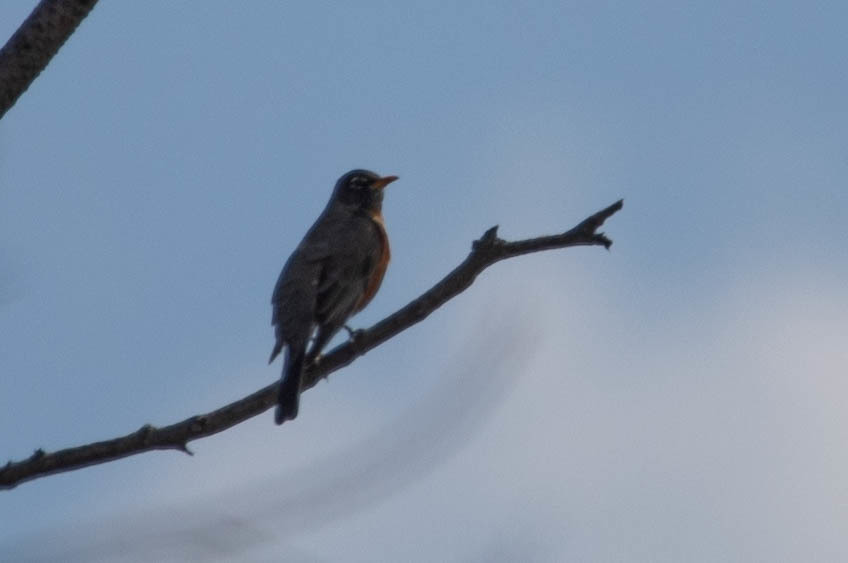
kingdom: Animalia
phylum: Chordata
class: Aves
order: Passeriformes
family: Turdidae
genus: Turdus
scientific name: Turdus migratorius
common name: American robin
